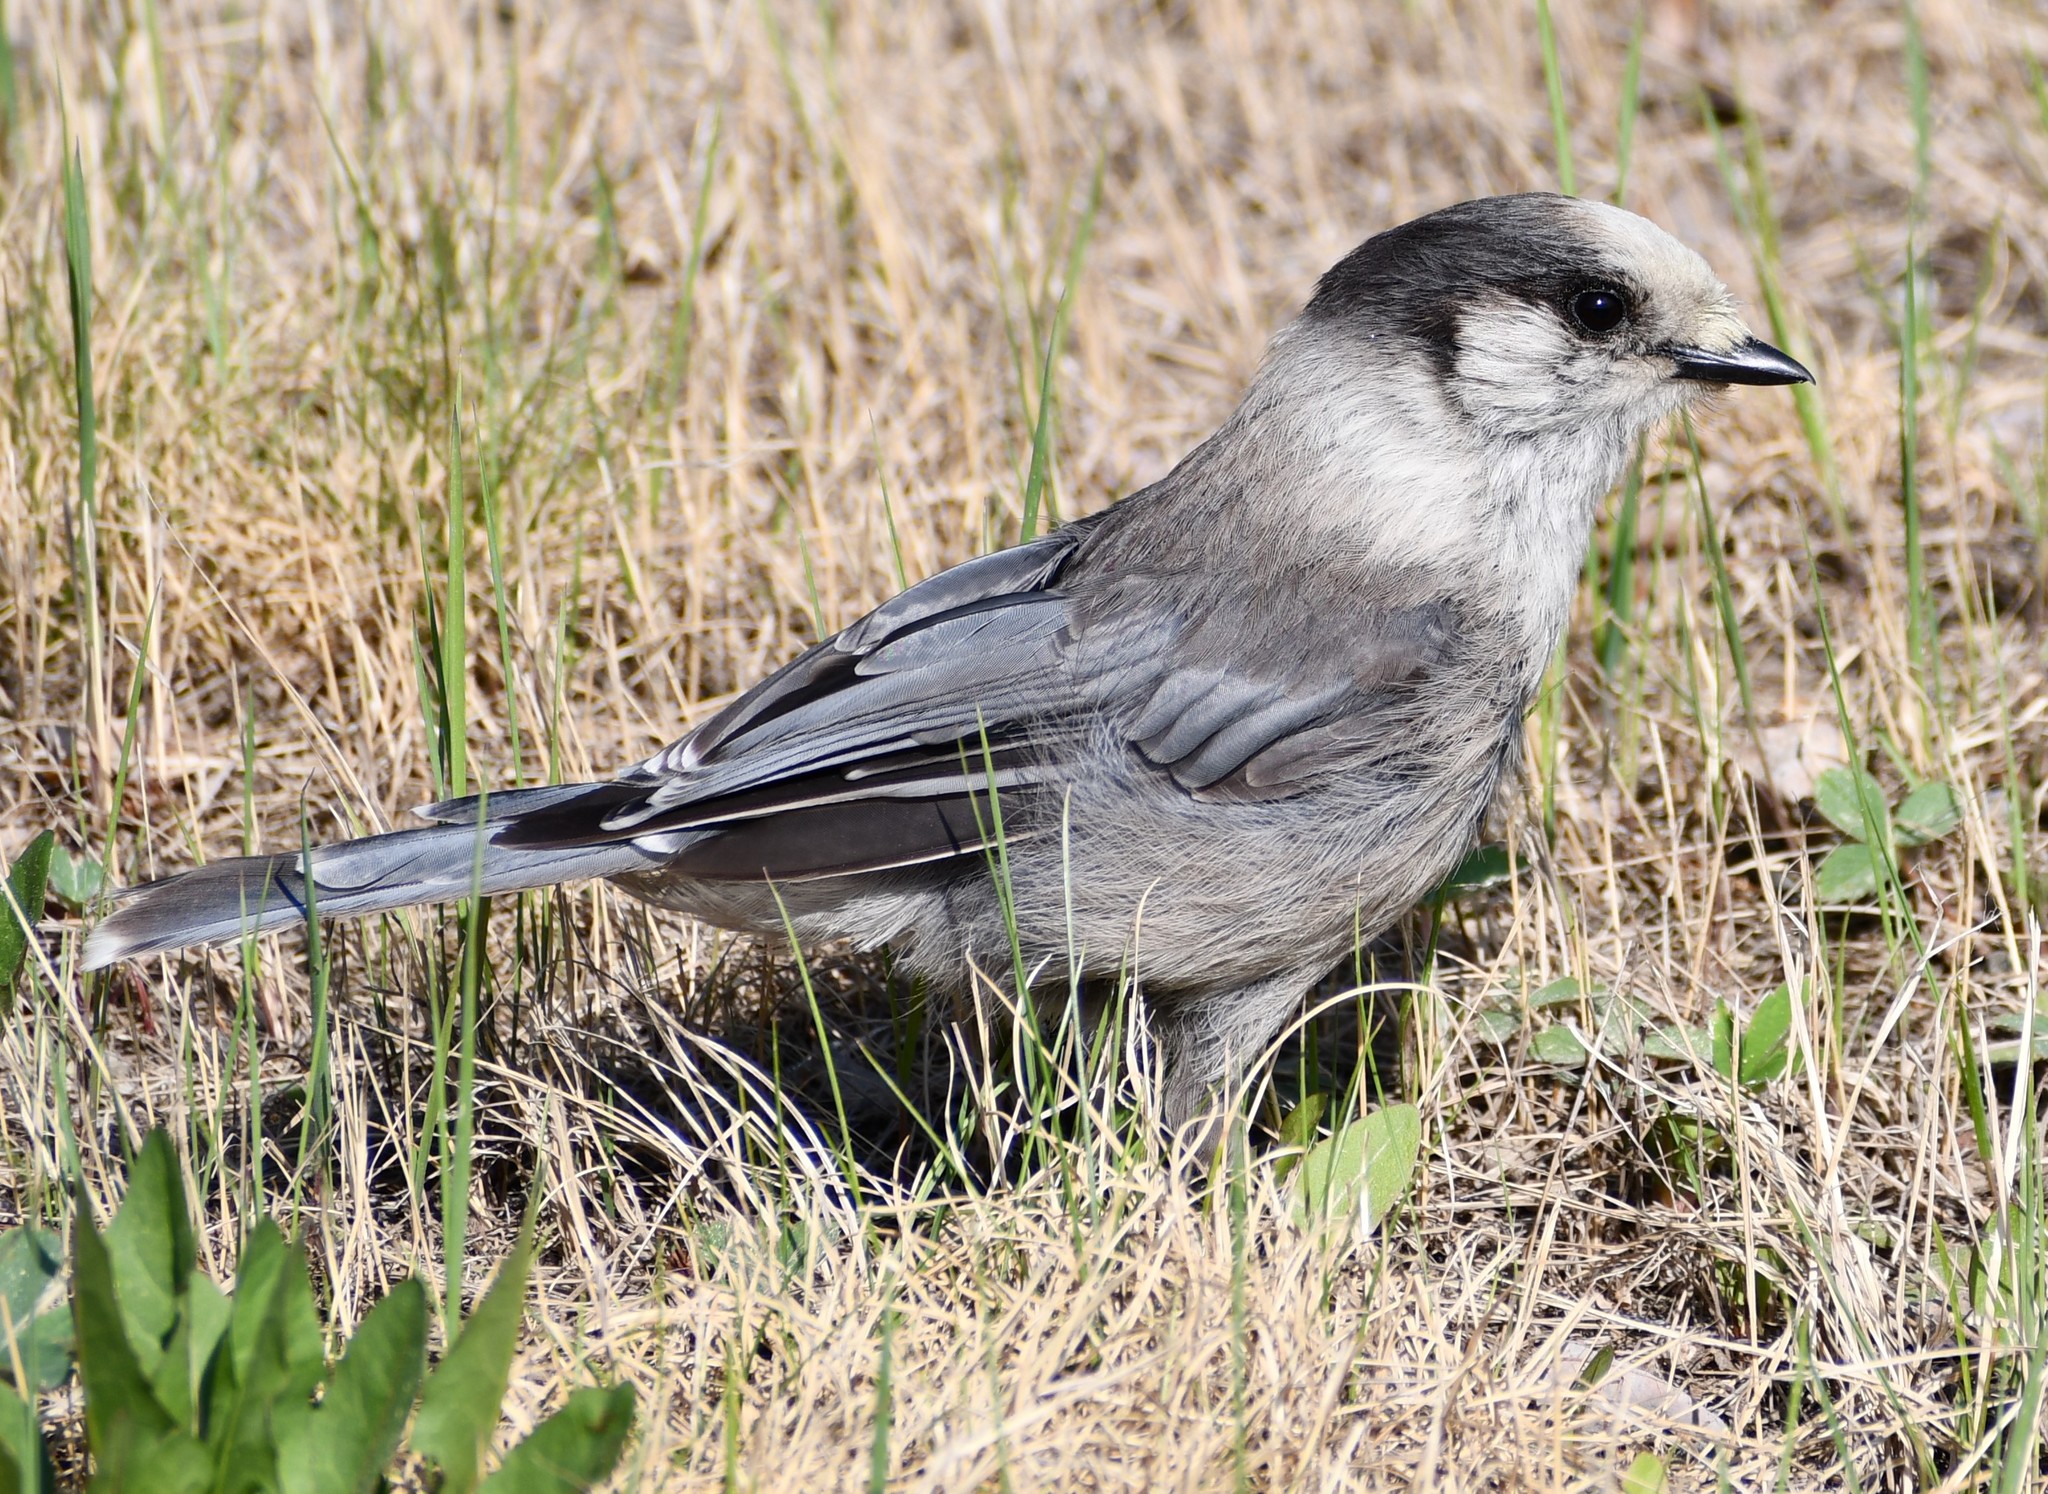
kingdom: Animalia
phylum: Chordata
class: Aves
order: Passeriformes
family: Corvidae
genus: Perisoreus
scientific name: Perisoreus canadensis
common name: Gray jay
